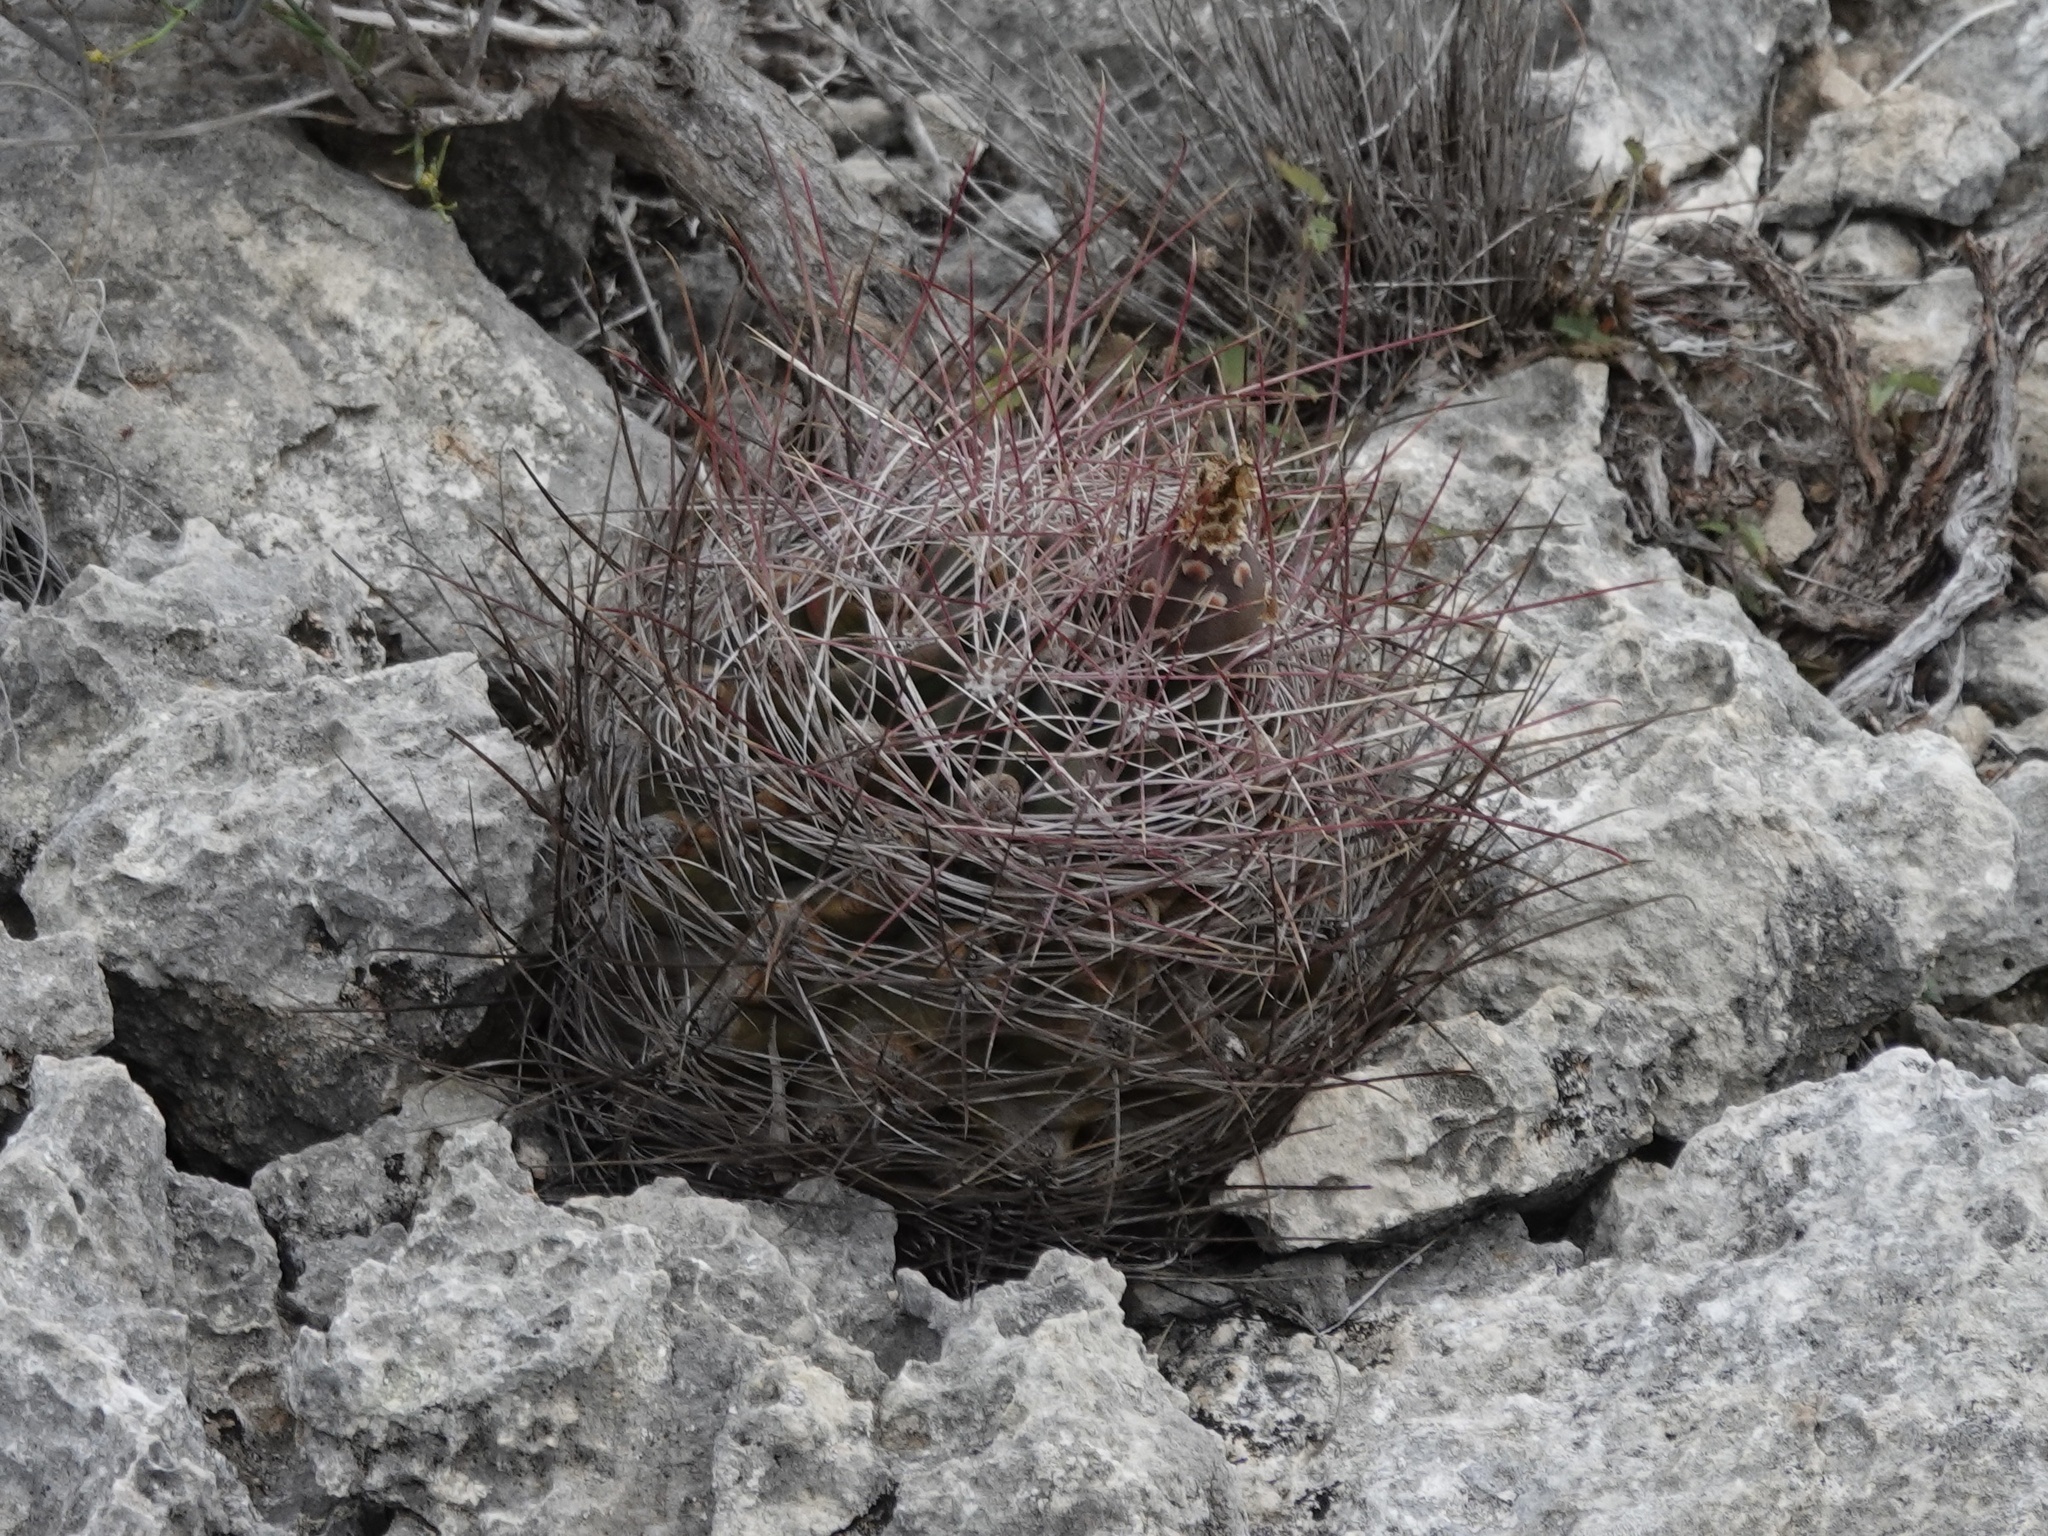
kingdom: Plantae
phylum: Tracheophyta
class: Magnoliopsida
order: Caryophyllales
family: Cactaceae
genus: Bisnaga
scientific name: Bisnaga hamatacantha
